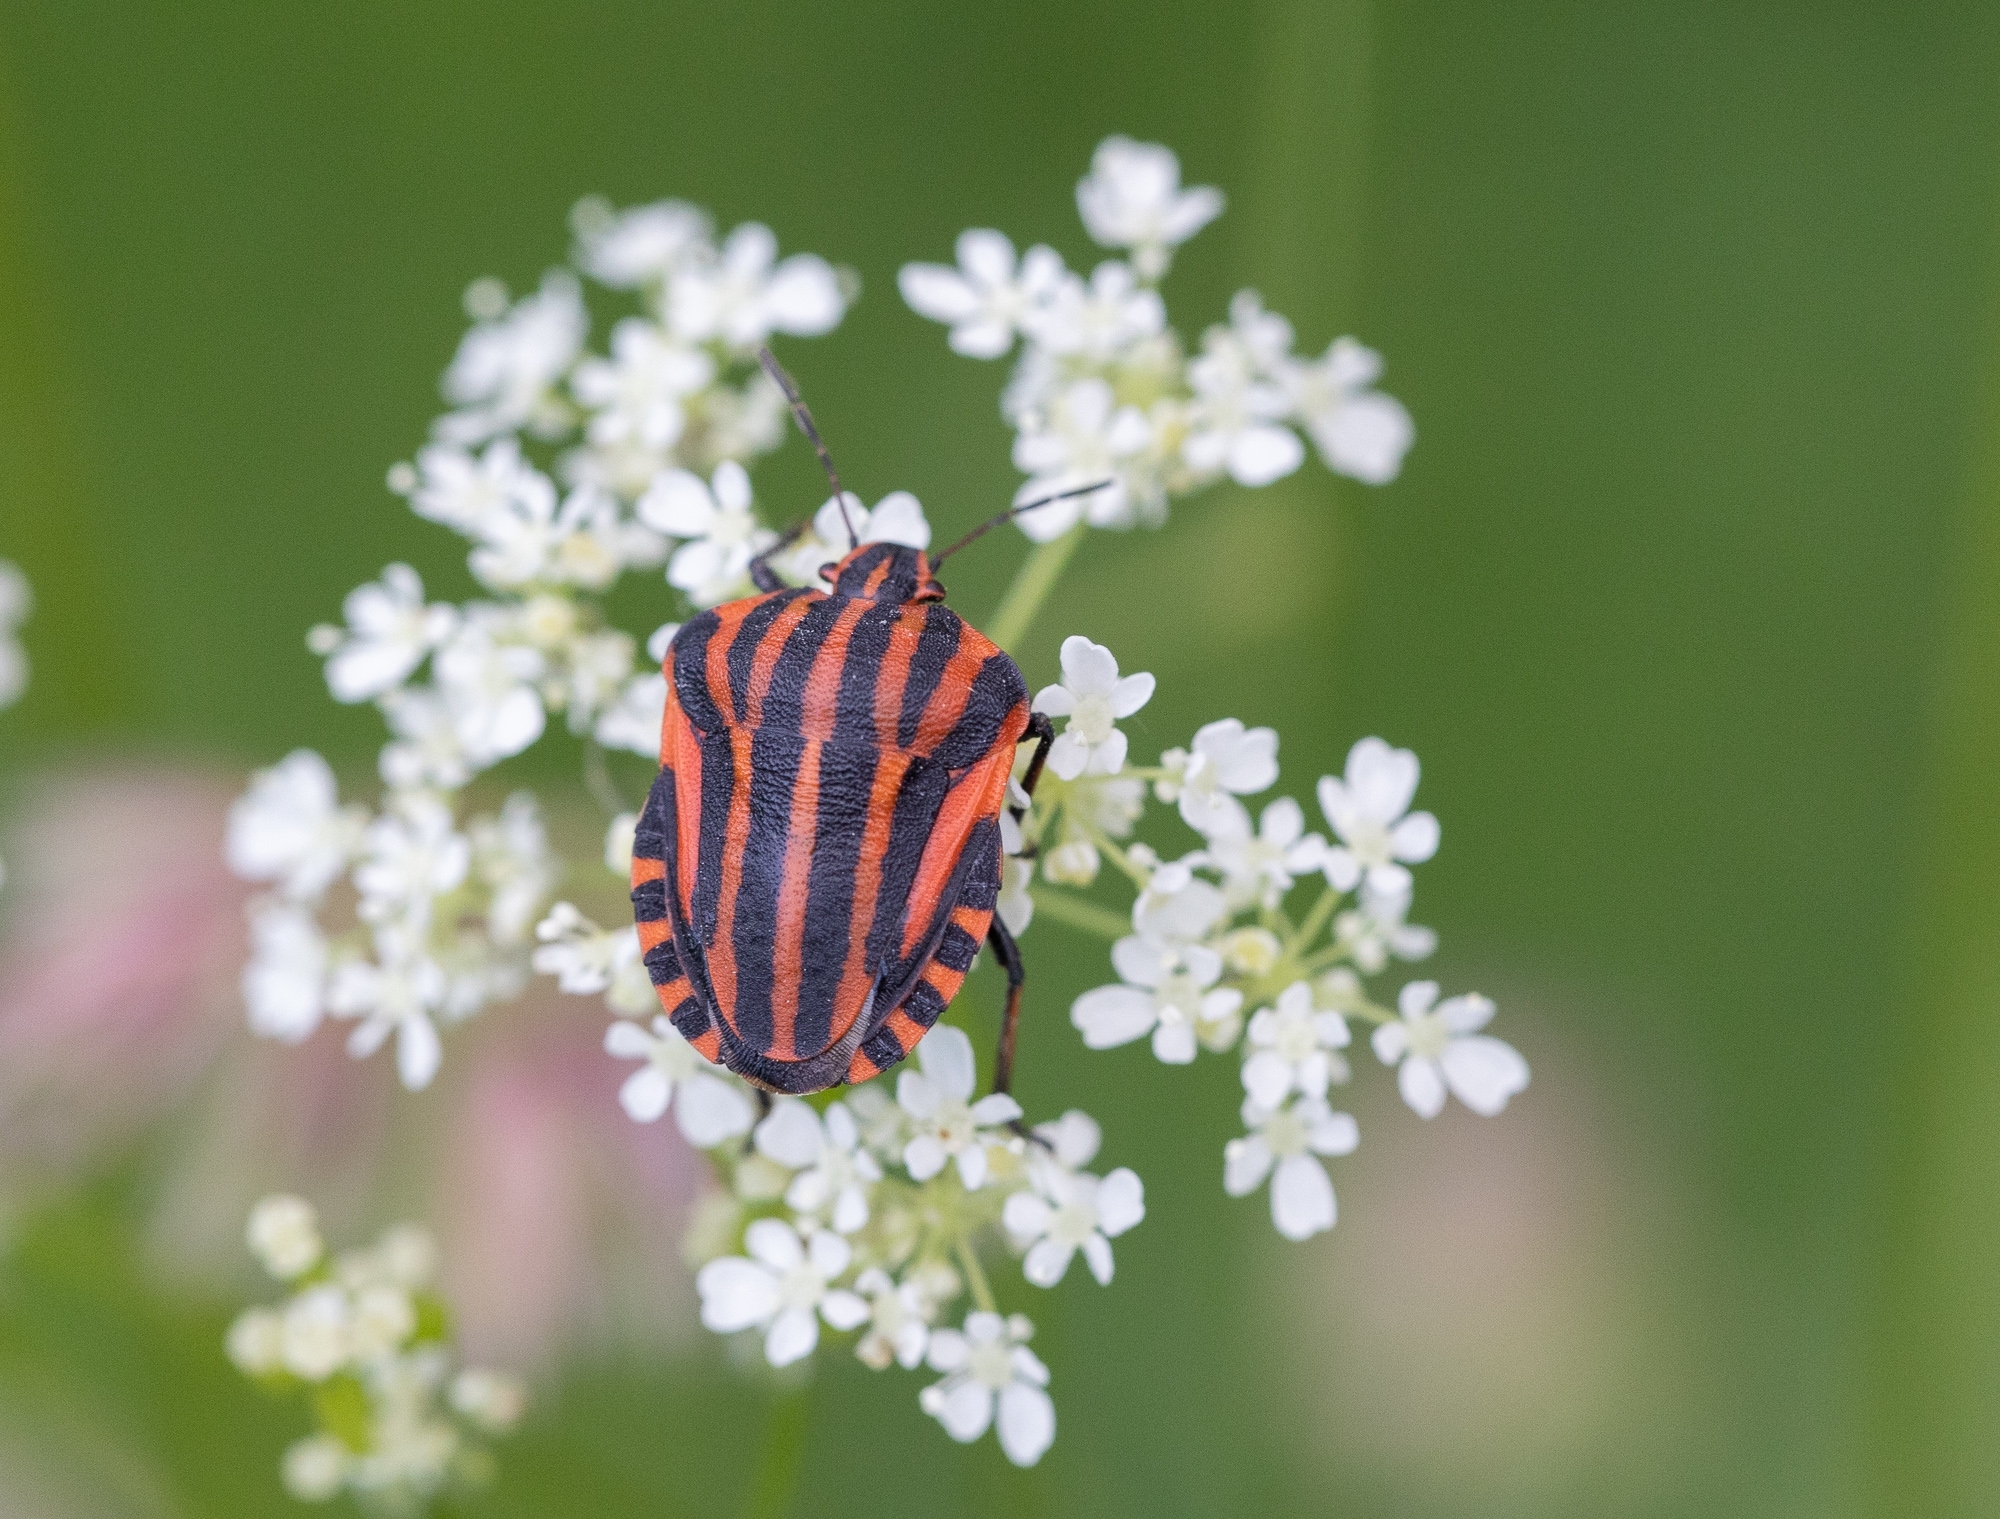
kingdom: Animalia
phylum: Arthropoda
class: Insecta
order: Hemiptera
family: Pentatomidae
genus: Graphosoma
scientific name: Graphosoma italicum
